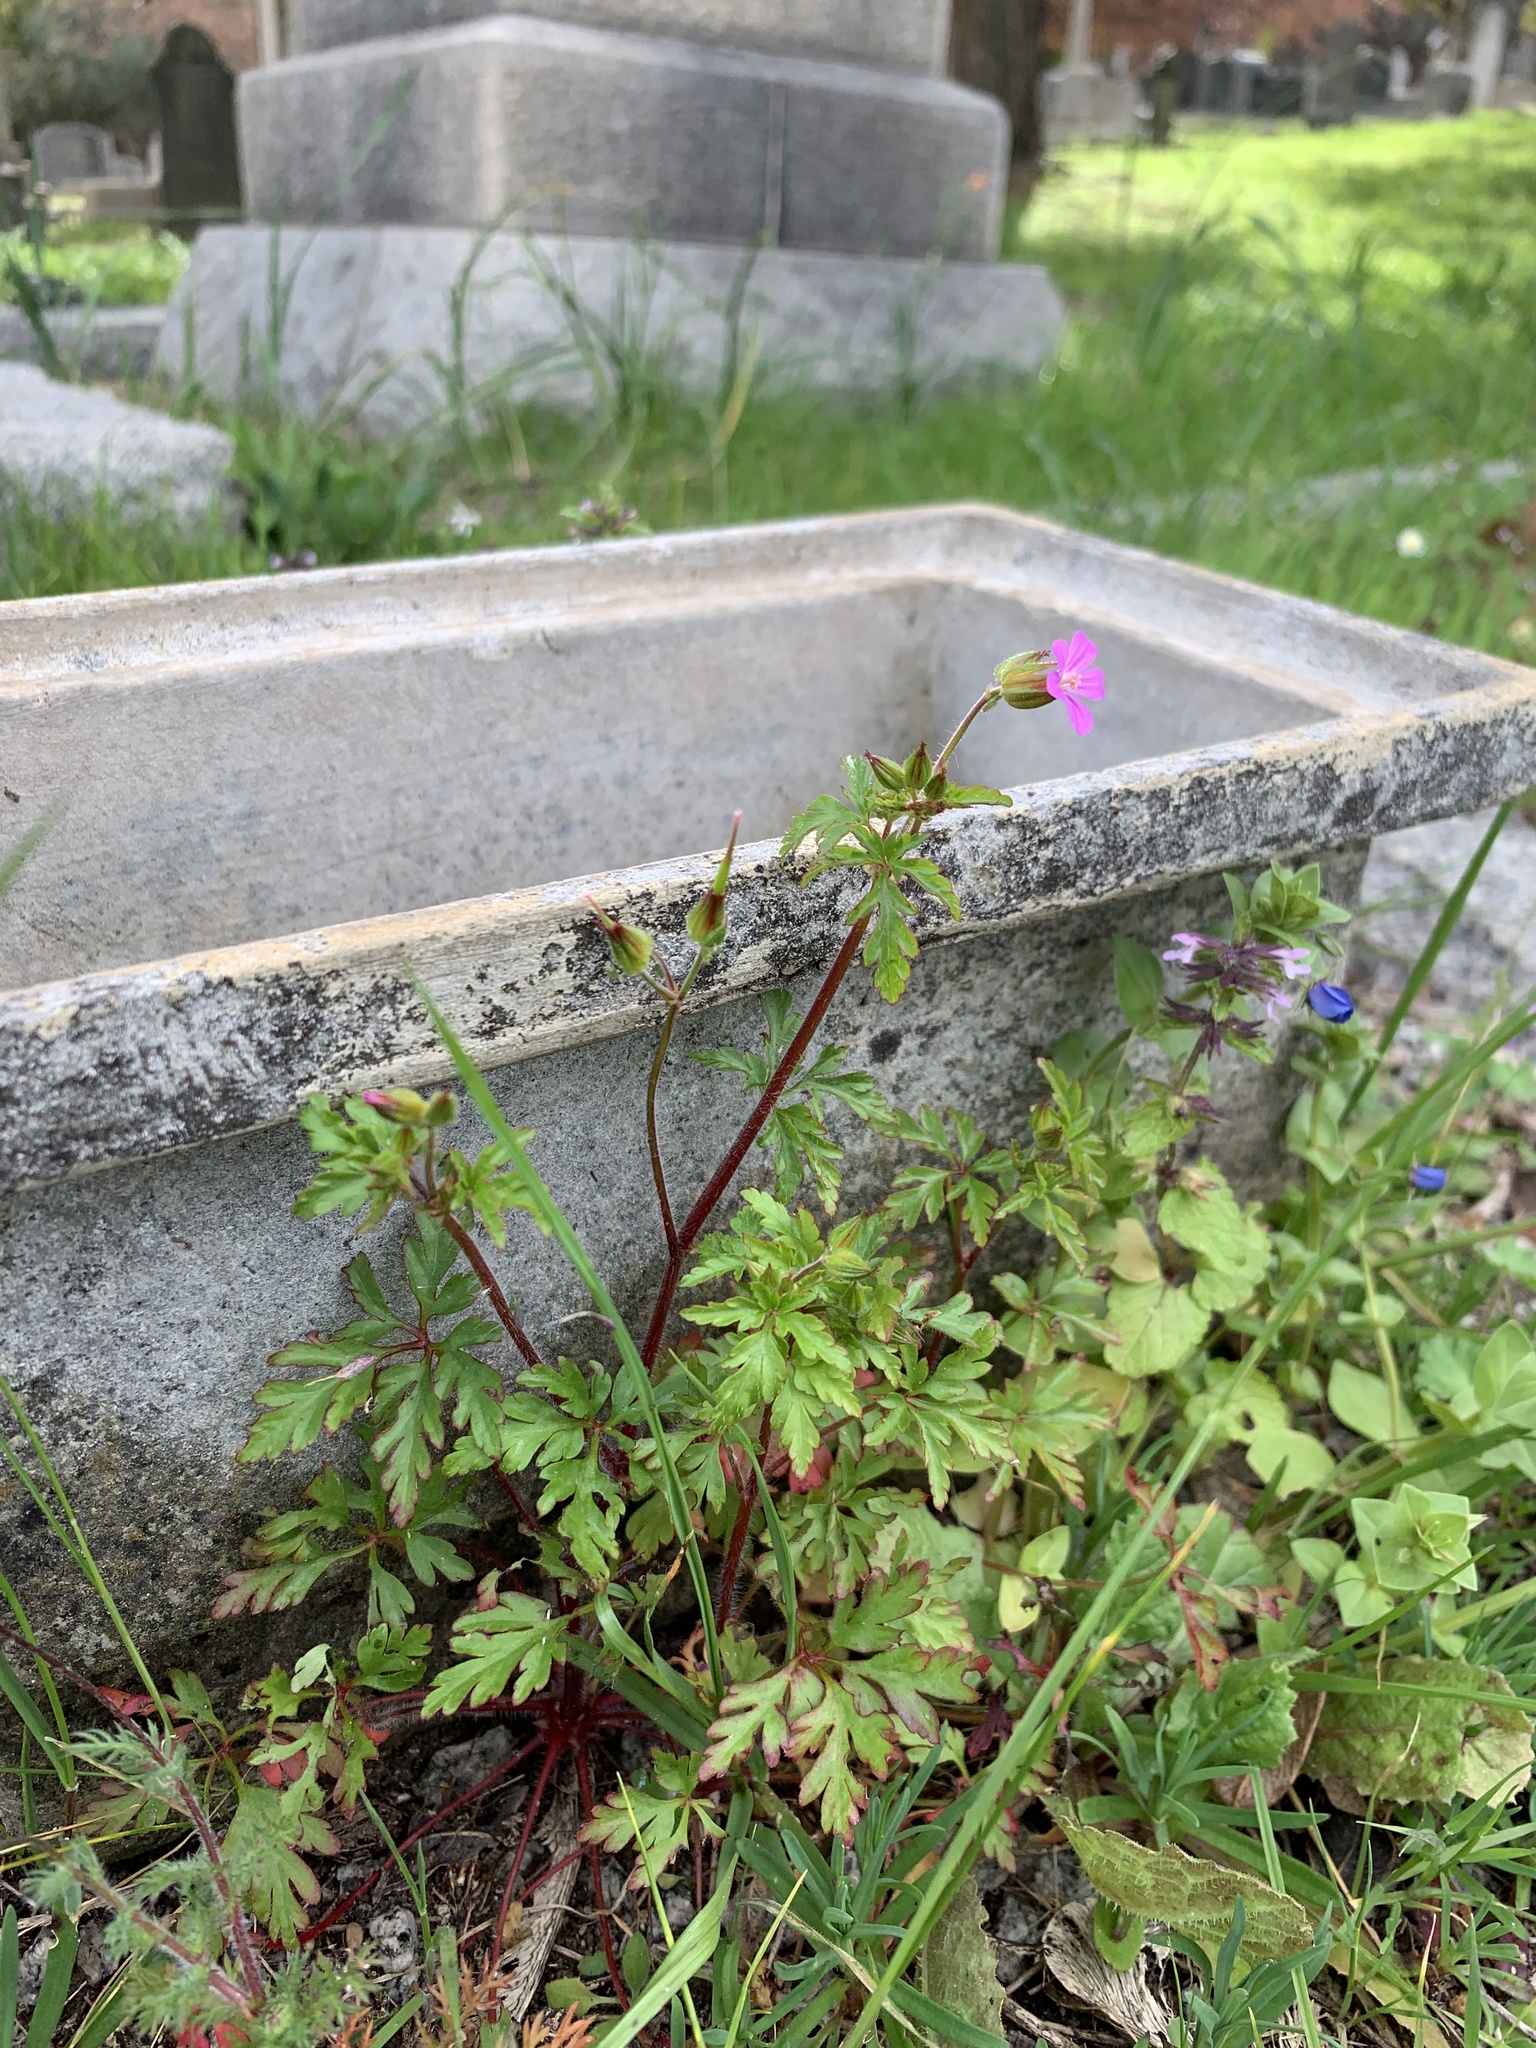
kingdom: Plantae
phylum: Tracheophyta
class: Magnoliopsida
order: Geraniales
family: Geraniaceae
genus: Geranium
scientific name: Geranium purpureum
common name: Little-robin
